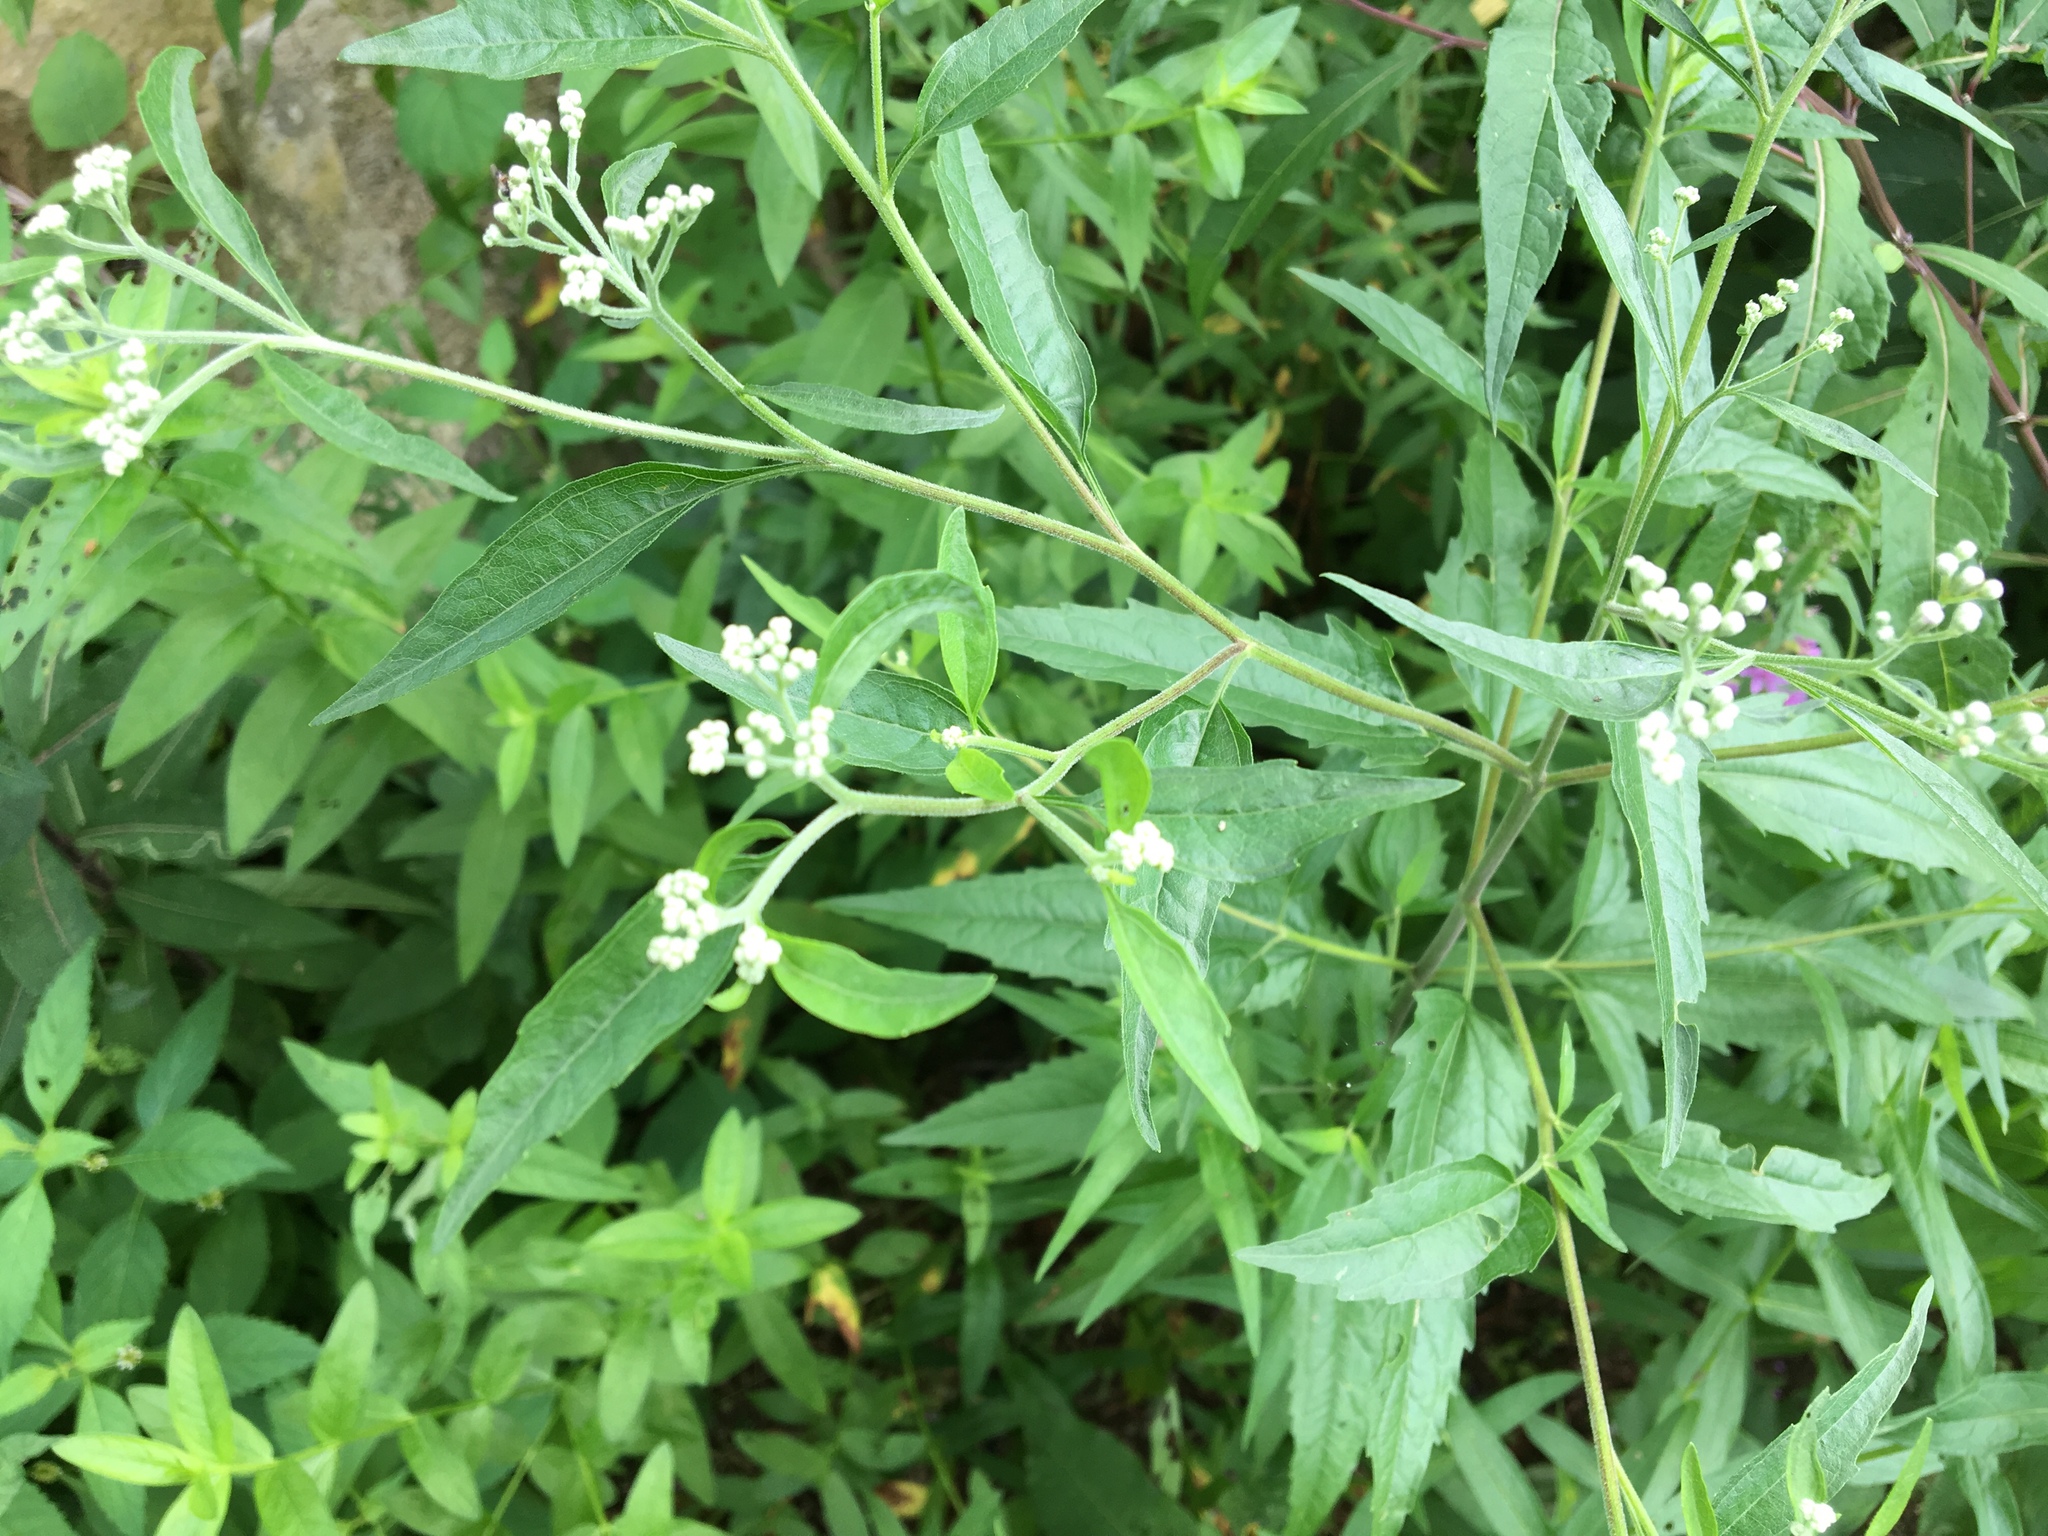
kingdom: Plantae
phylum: Tracheophyta
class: Magnoliopsida
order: Asterales
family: Asteraceae
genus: Eupatorium
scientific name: Eupatorium serotinum
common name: Late boneset
